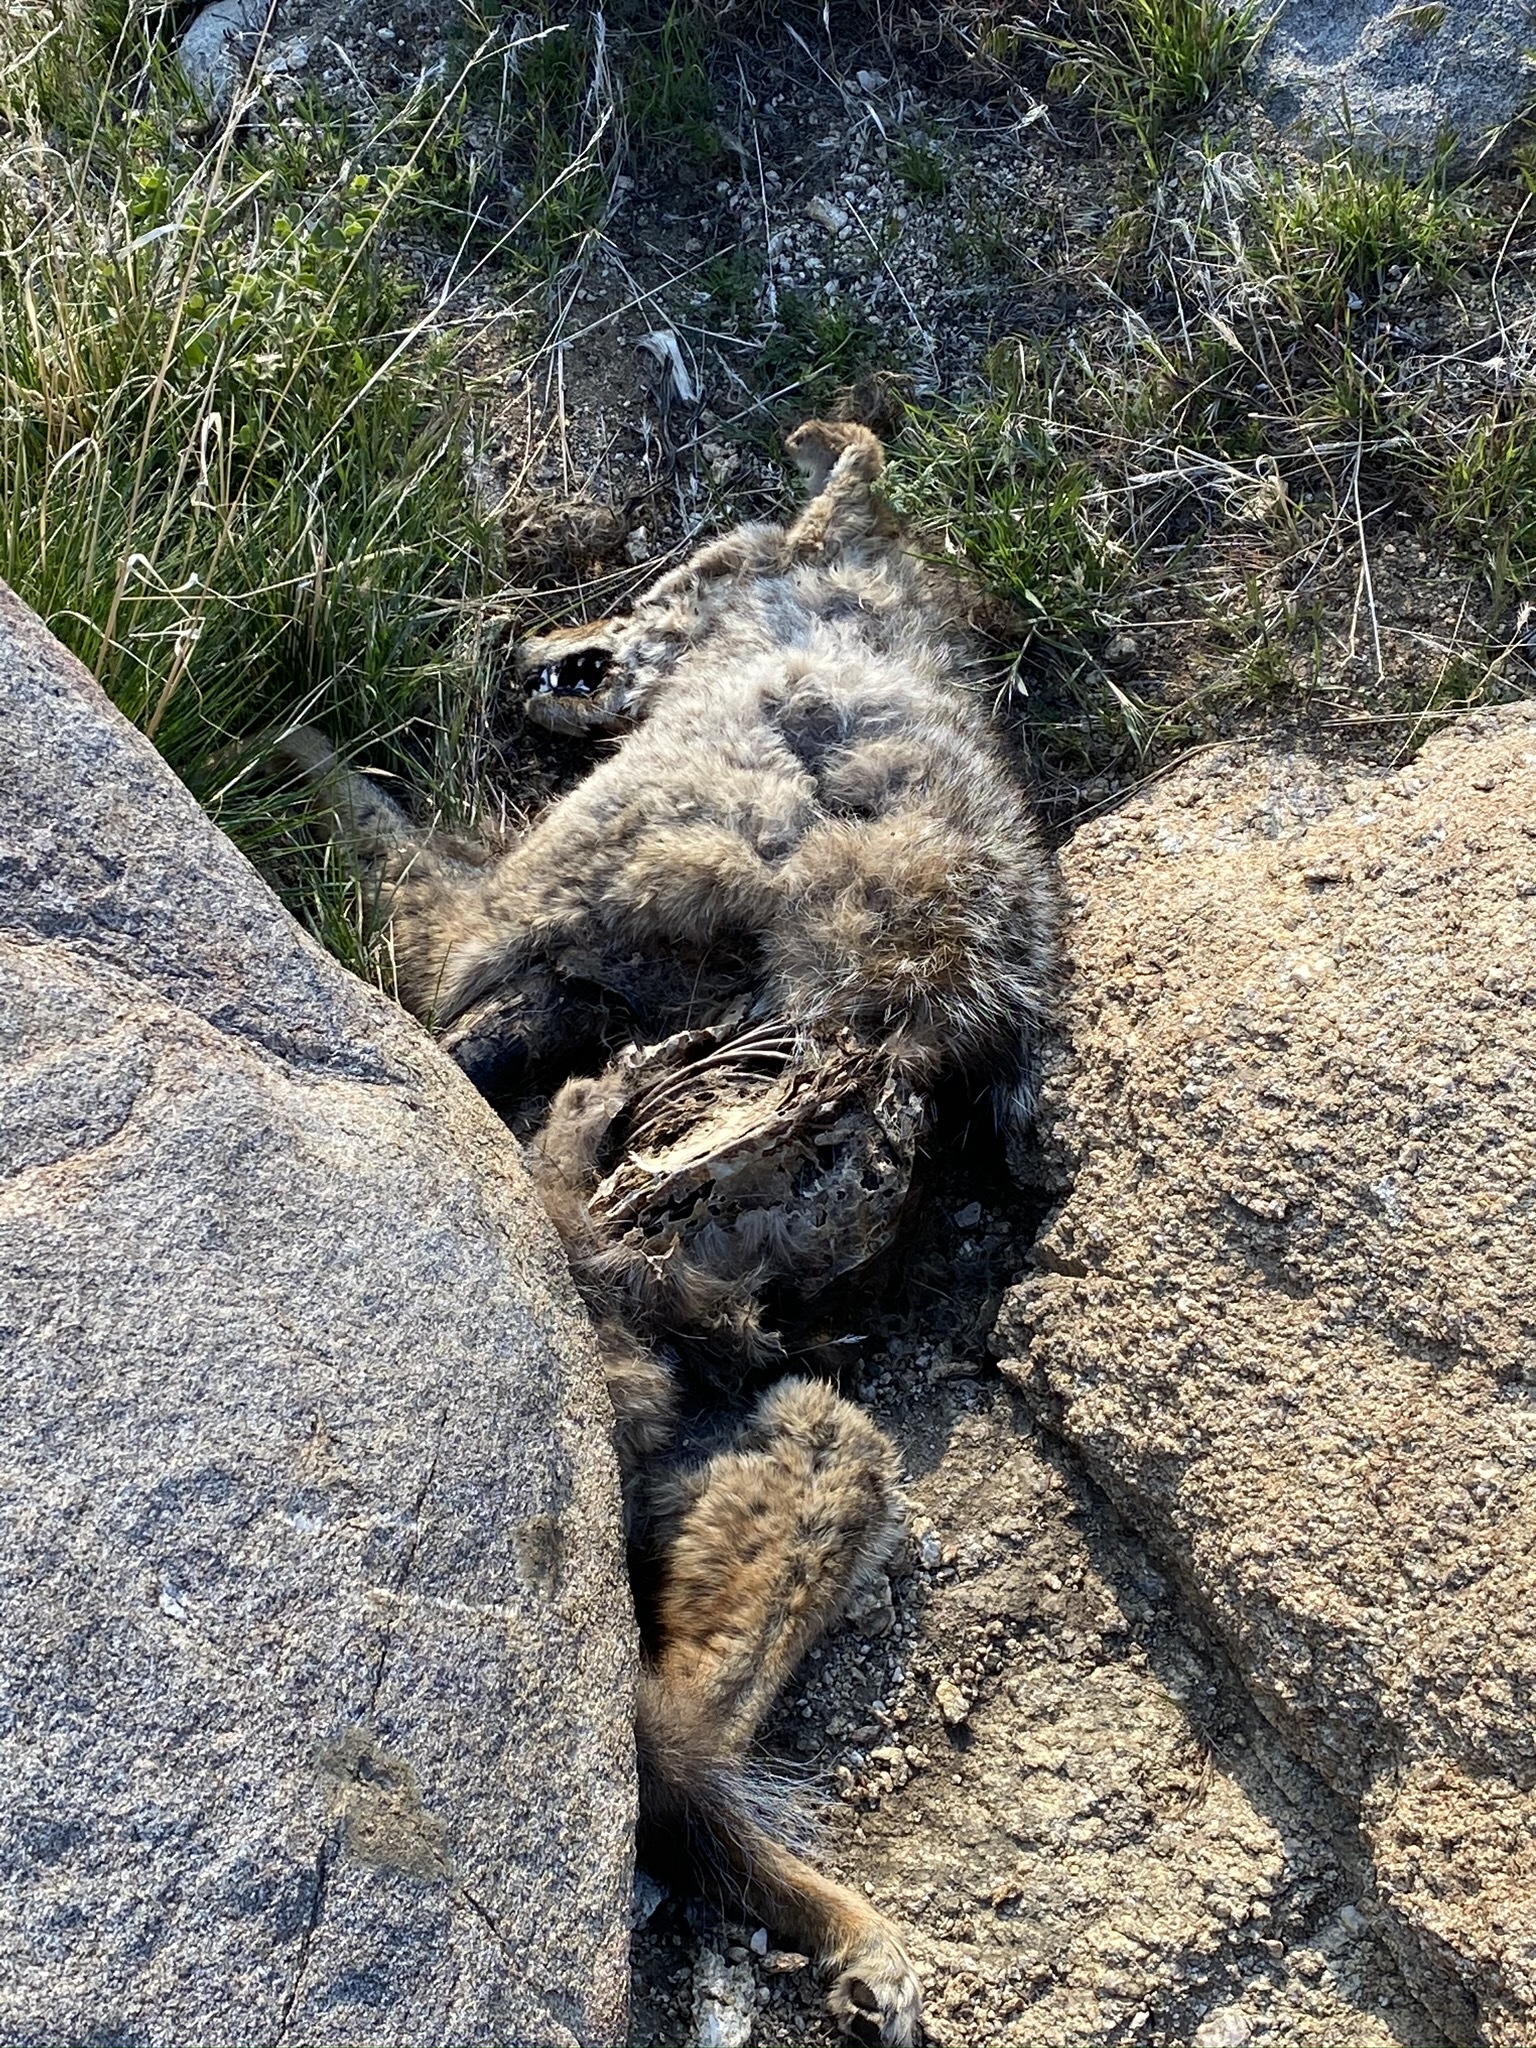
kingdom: Animalia
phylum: Chordata
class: Mammalia
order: Carnivora
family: Canidae
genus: Canis
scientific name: Canis latrans
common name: Coyote
